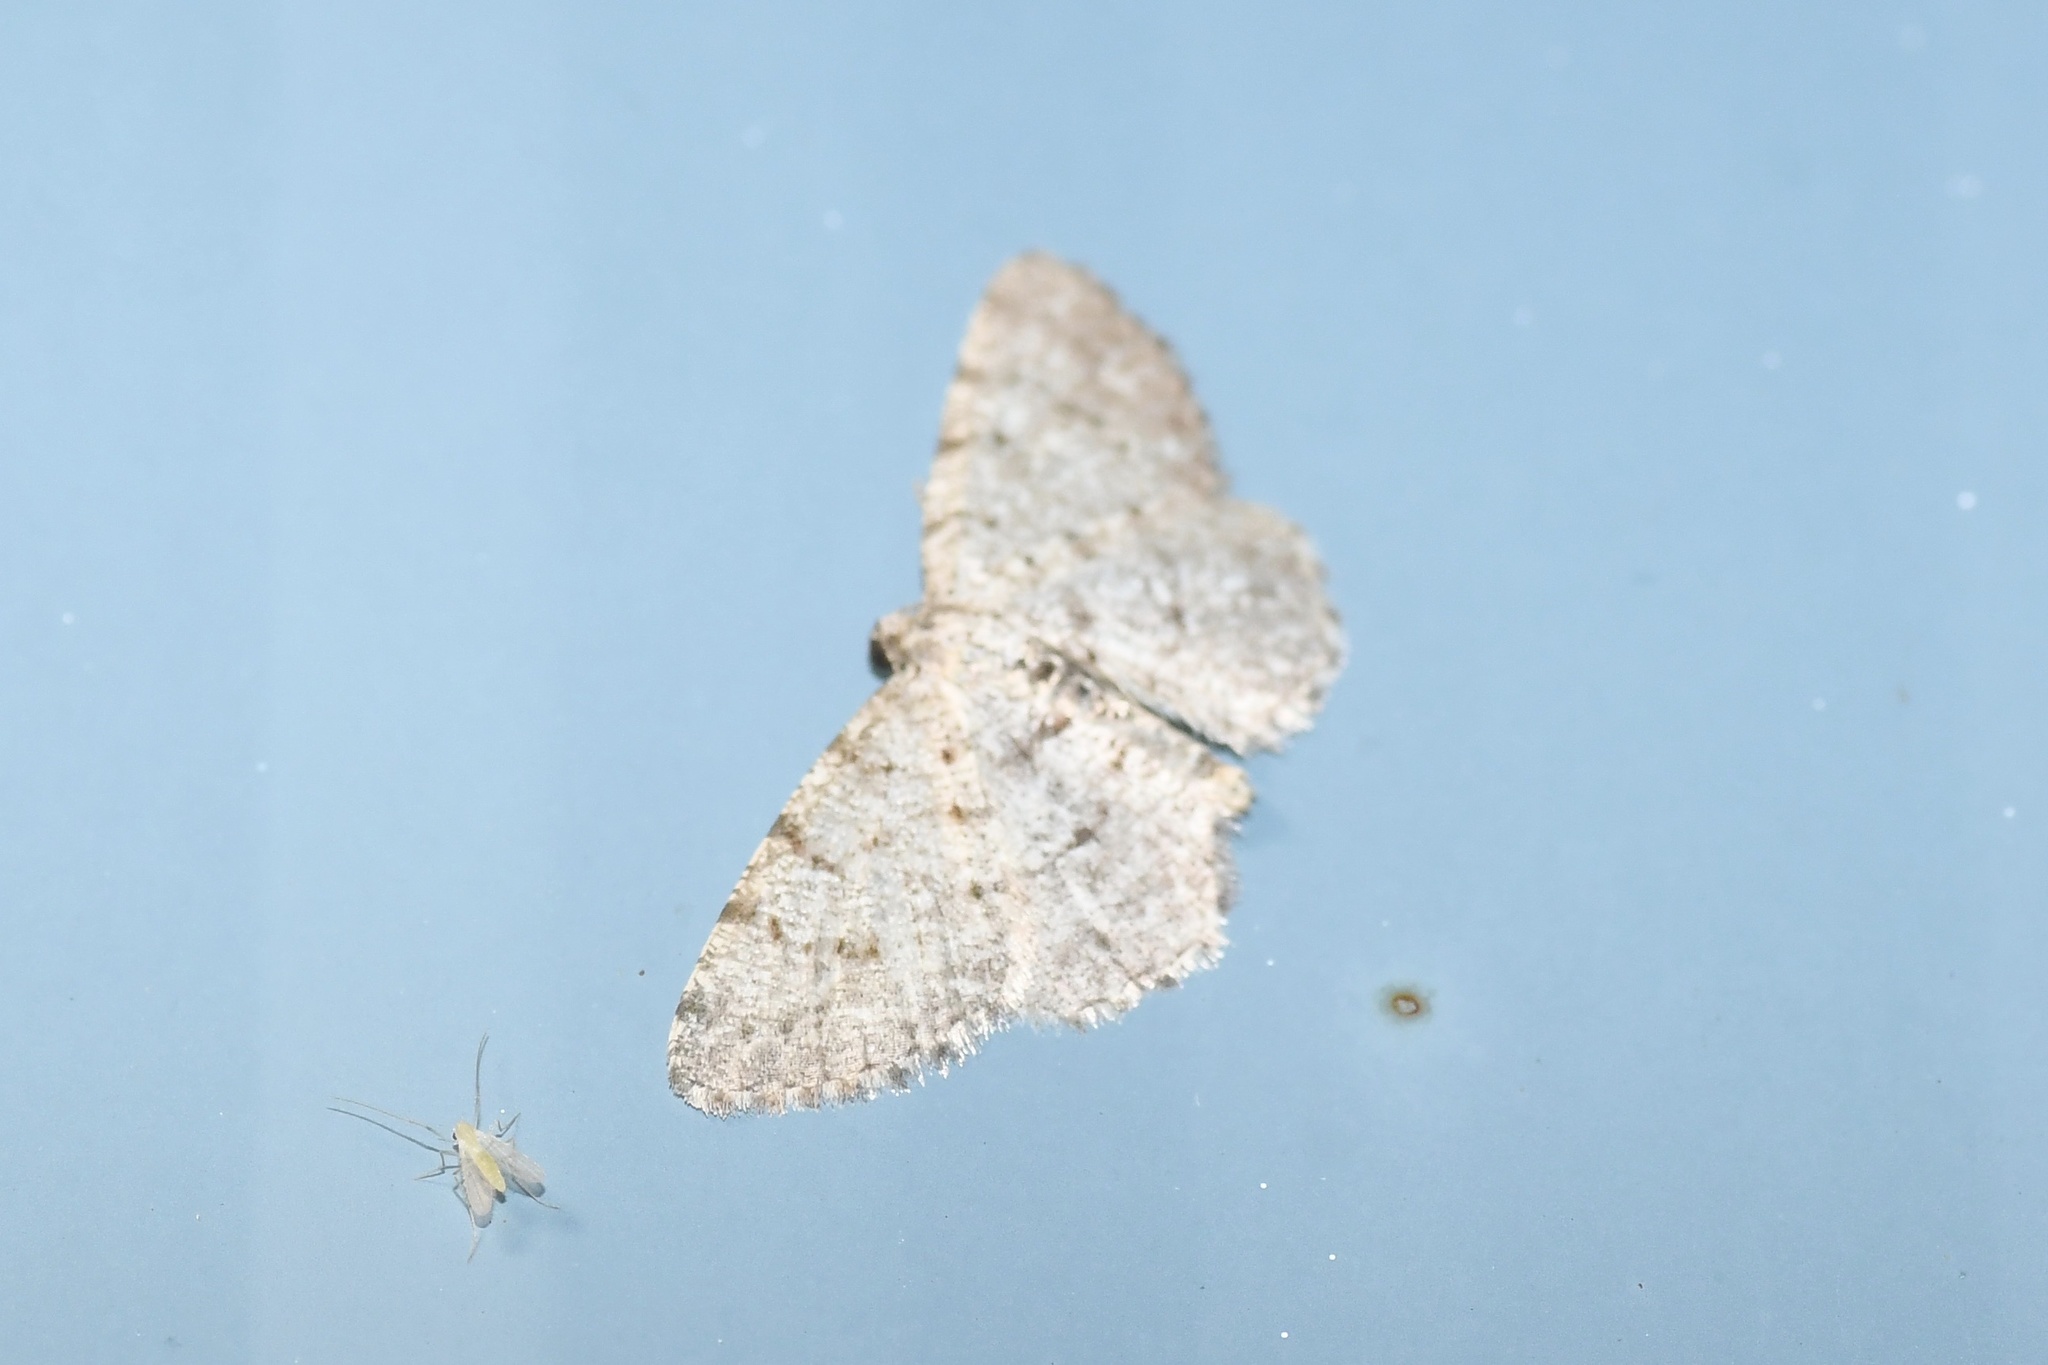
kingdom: Animalia
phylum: Arthropoda
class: Insecta
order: Lepidoptera
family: Geometridae
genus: Aethalura
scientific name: Aethalura intertexta
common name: Four-barred gray
